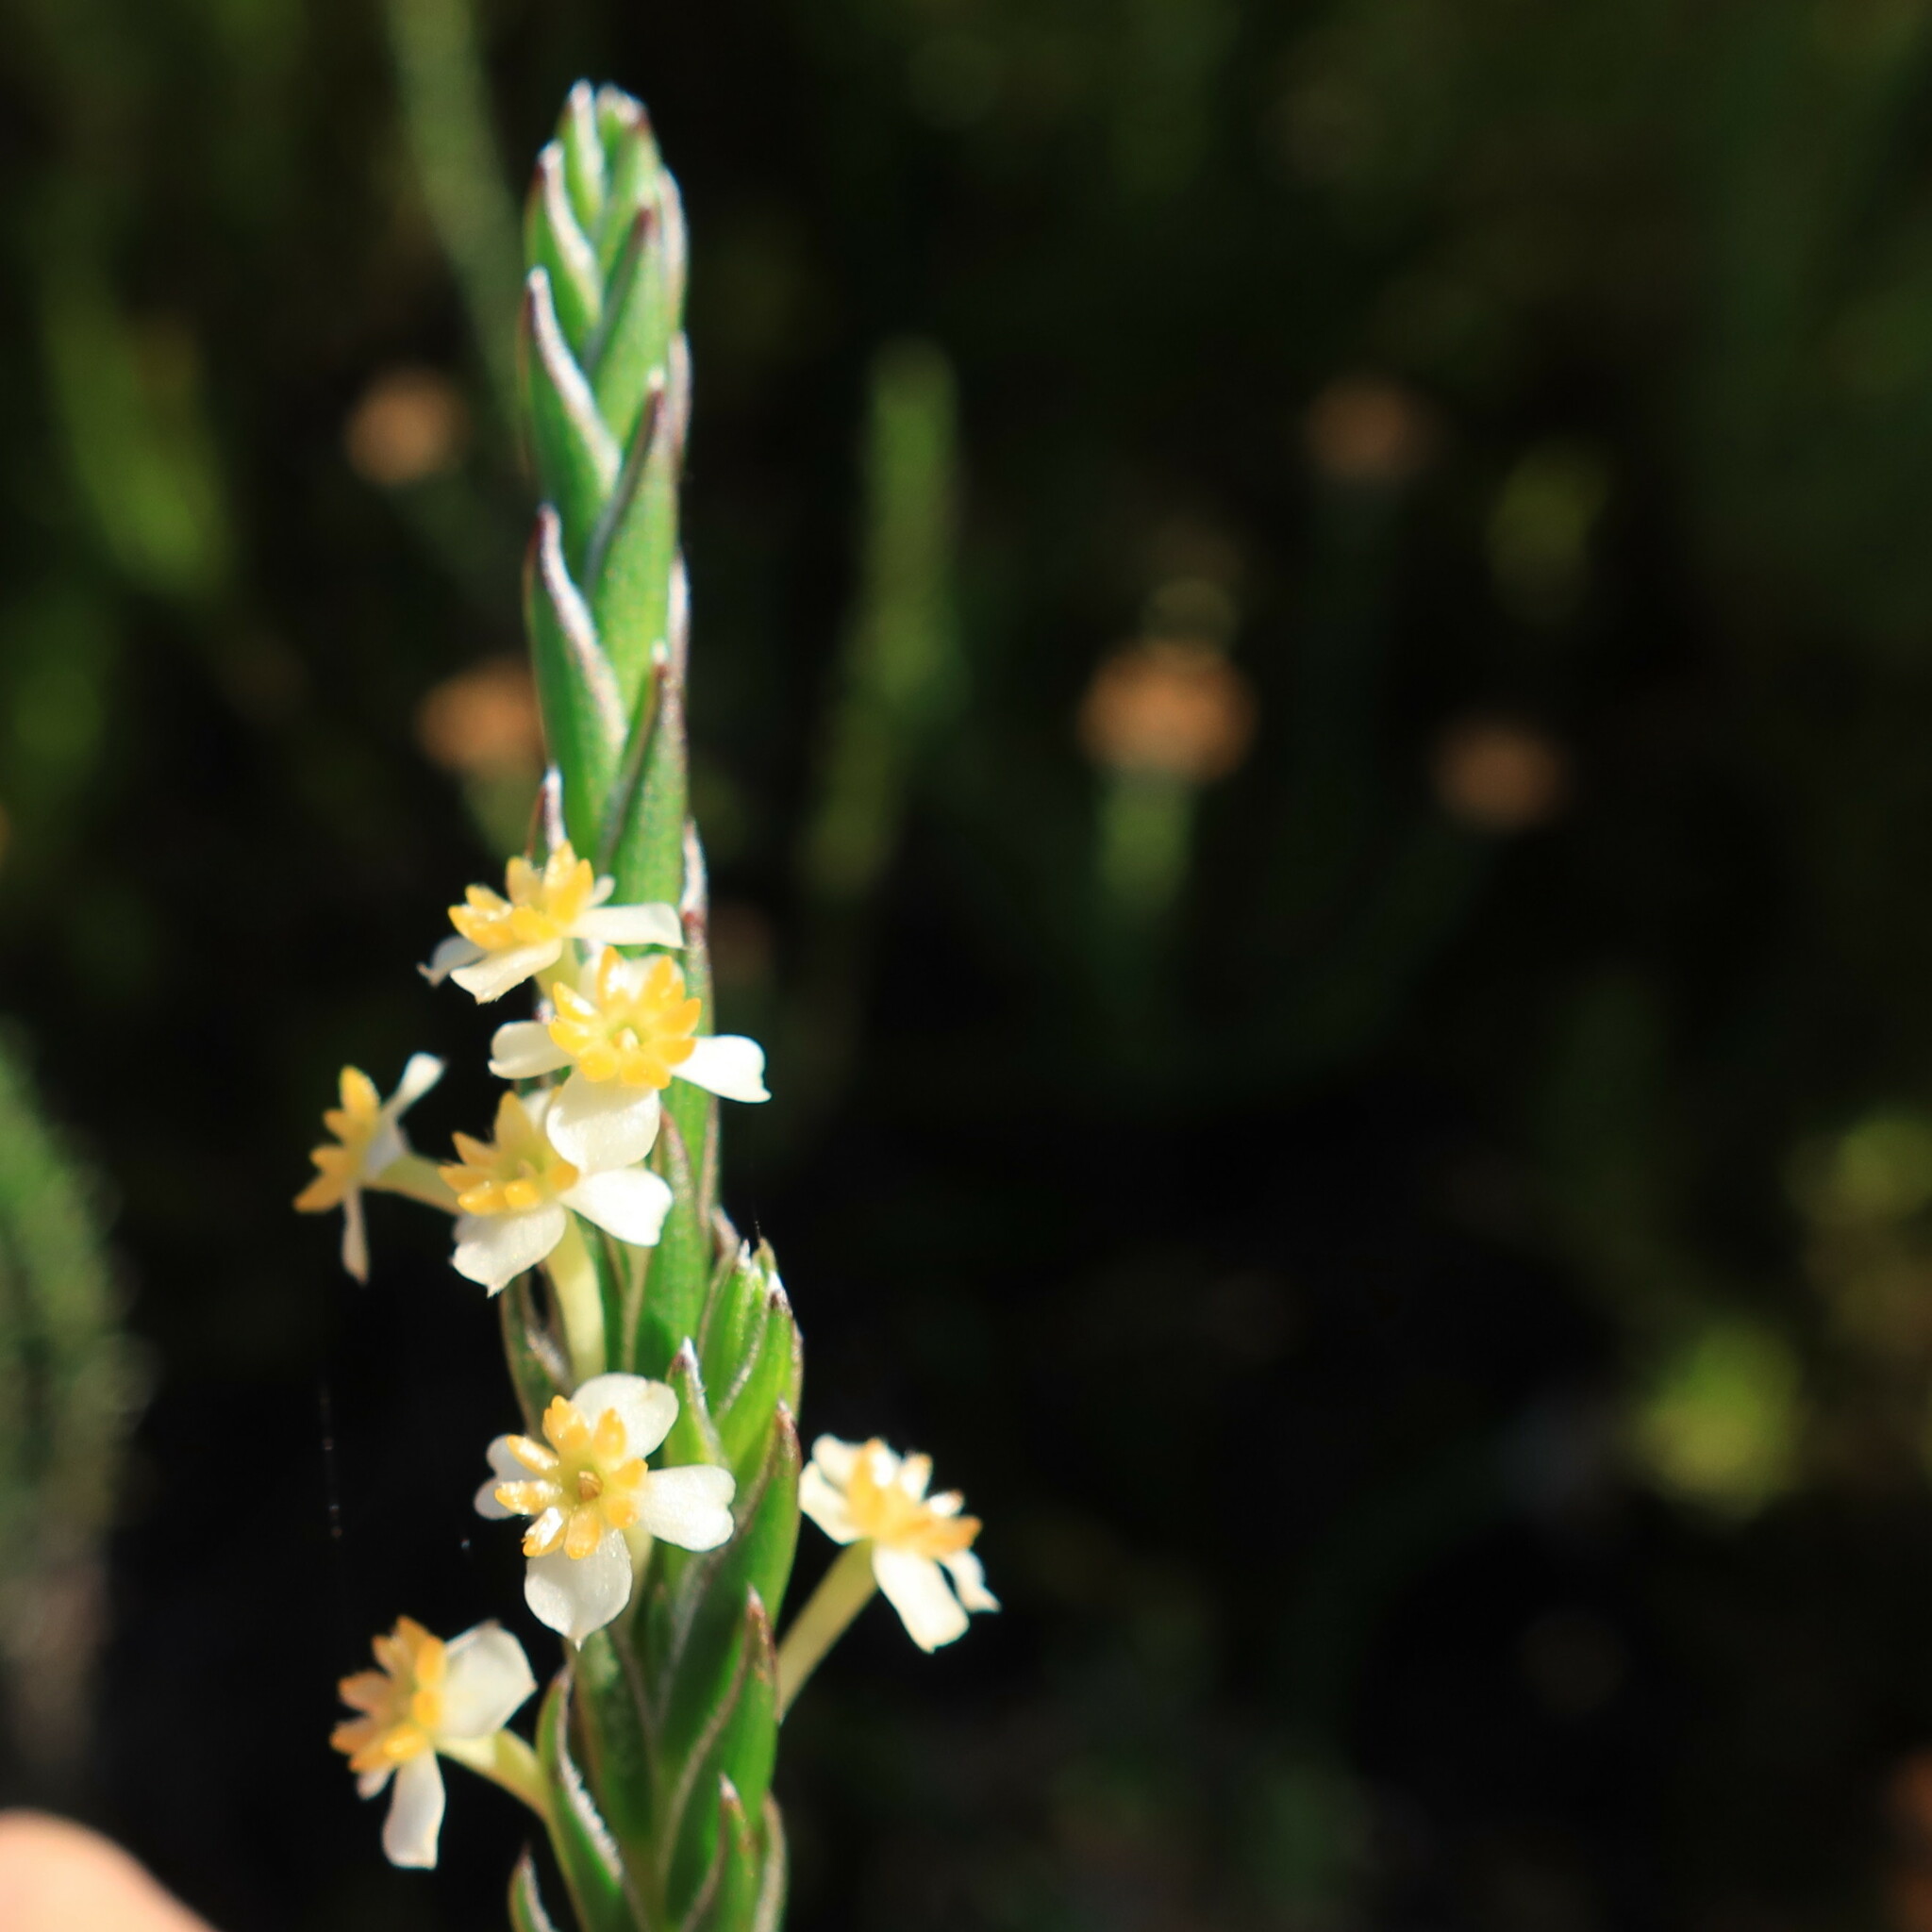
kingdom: Plantae
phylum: Tracheophyta
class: Magnoliopsida
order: Malvales
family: Thymelaeaceae
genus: Struthiola
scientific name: Struthiola ciliata
